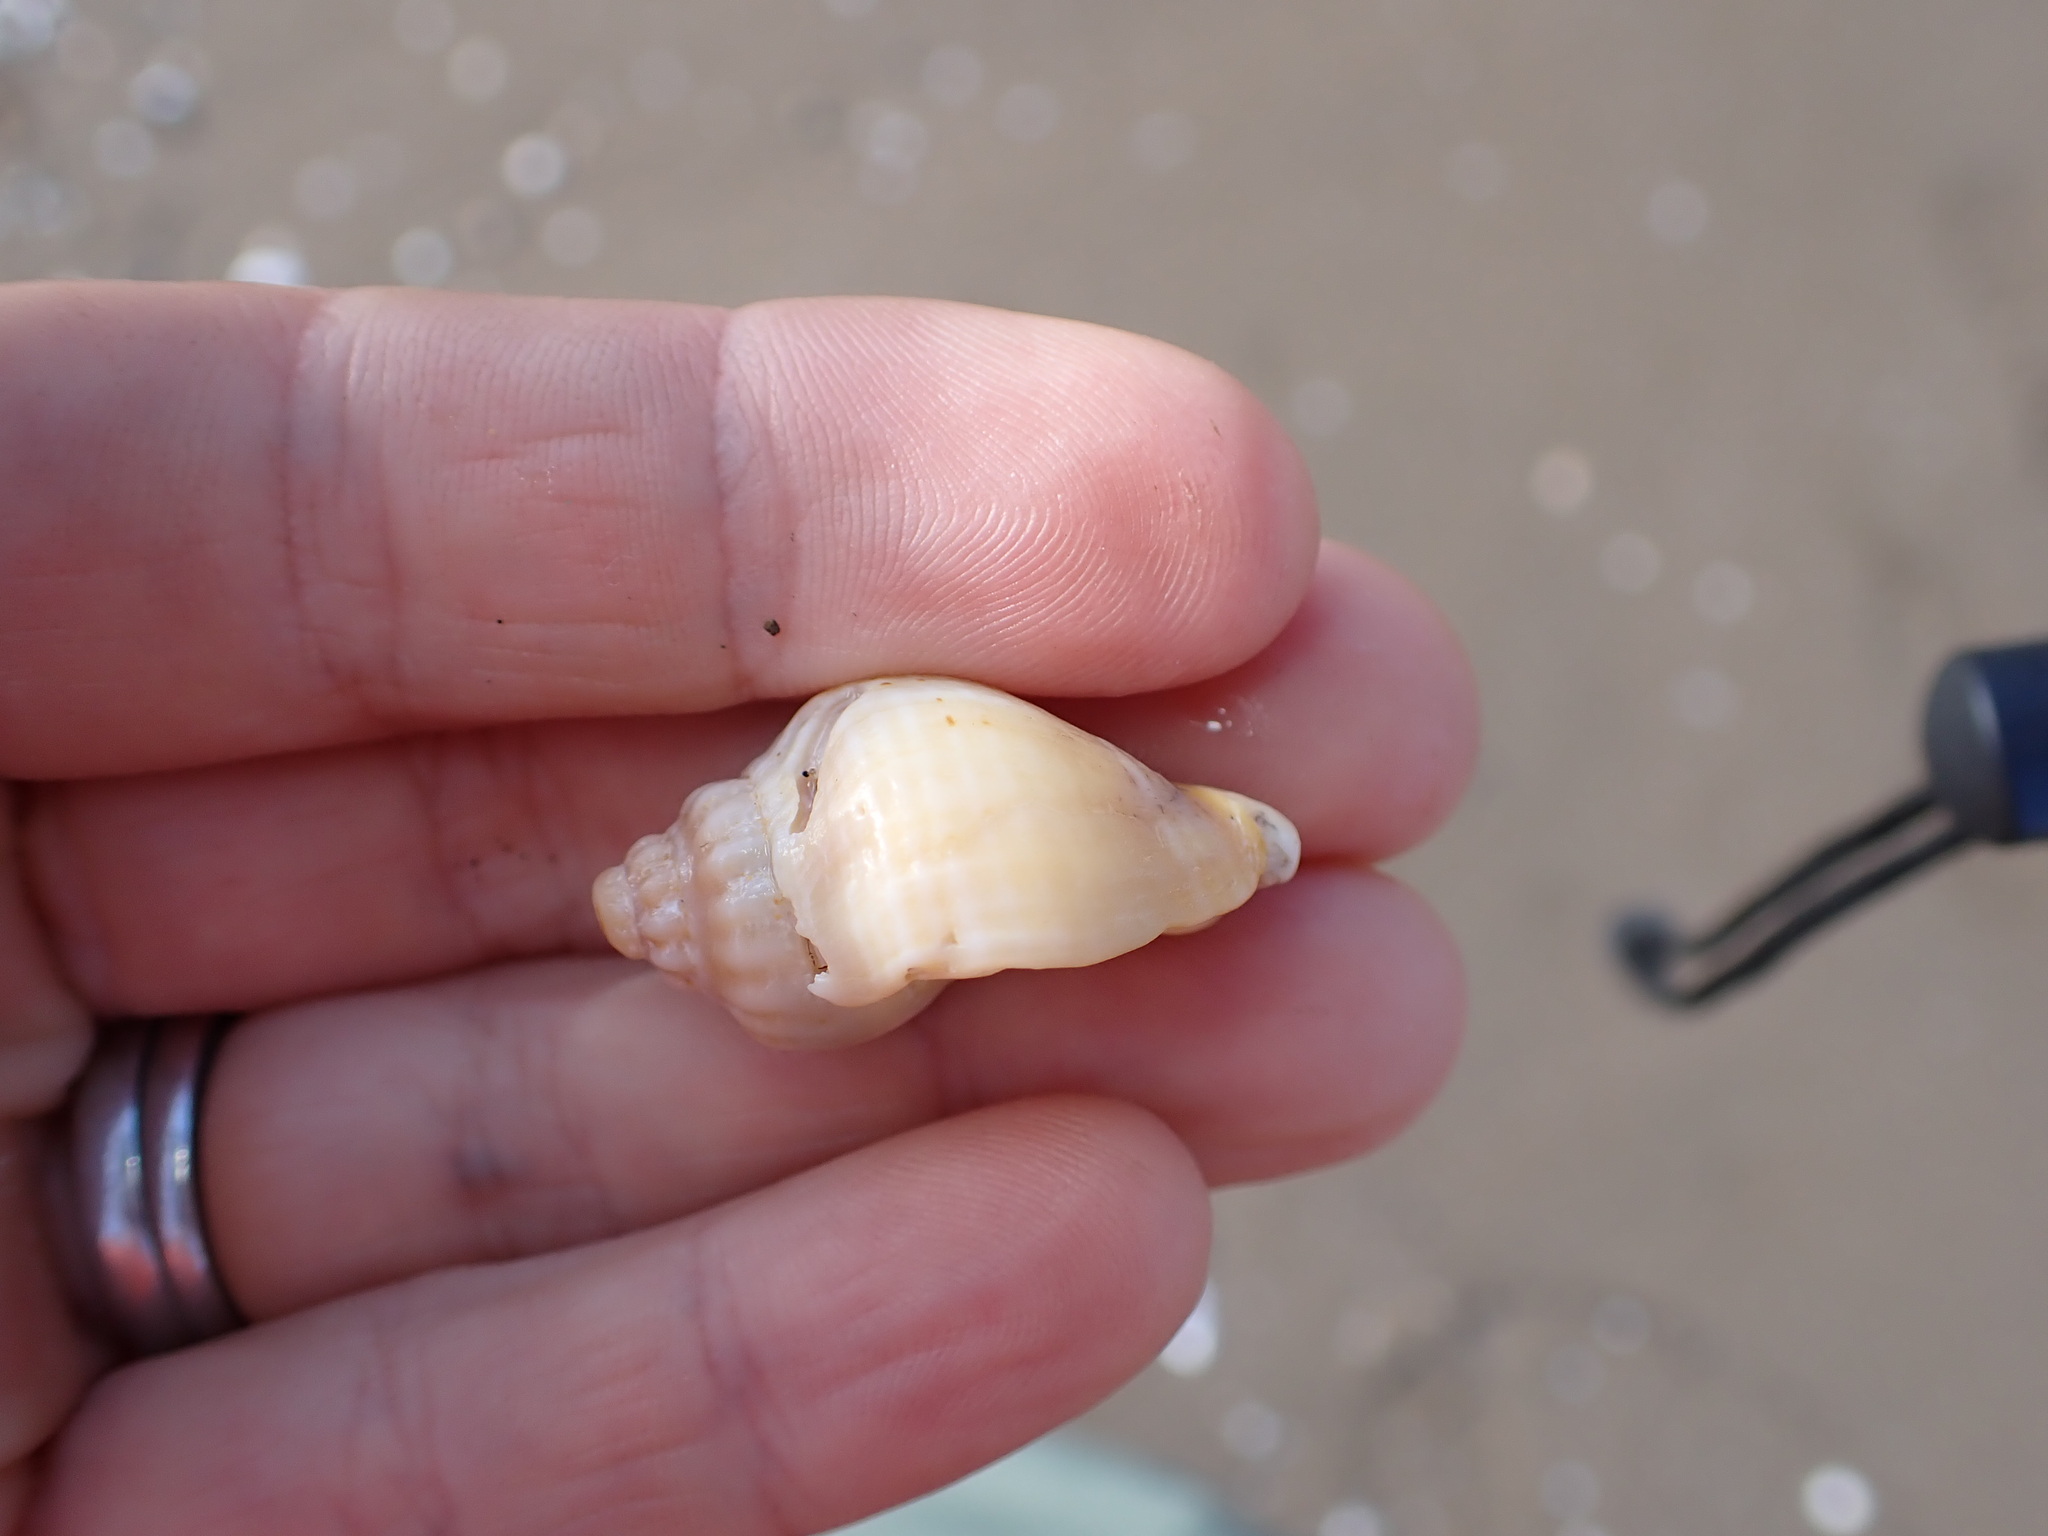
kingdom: Animalia
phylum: Mollusca
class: Gastropoda
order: Neogastropoda
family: Cominellidae
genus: Cominella
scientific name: Cominella adspersa
